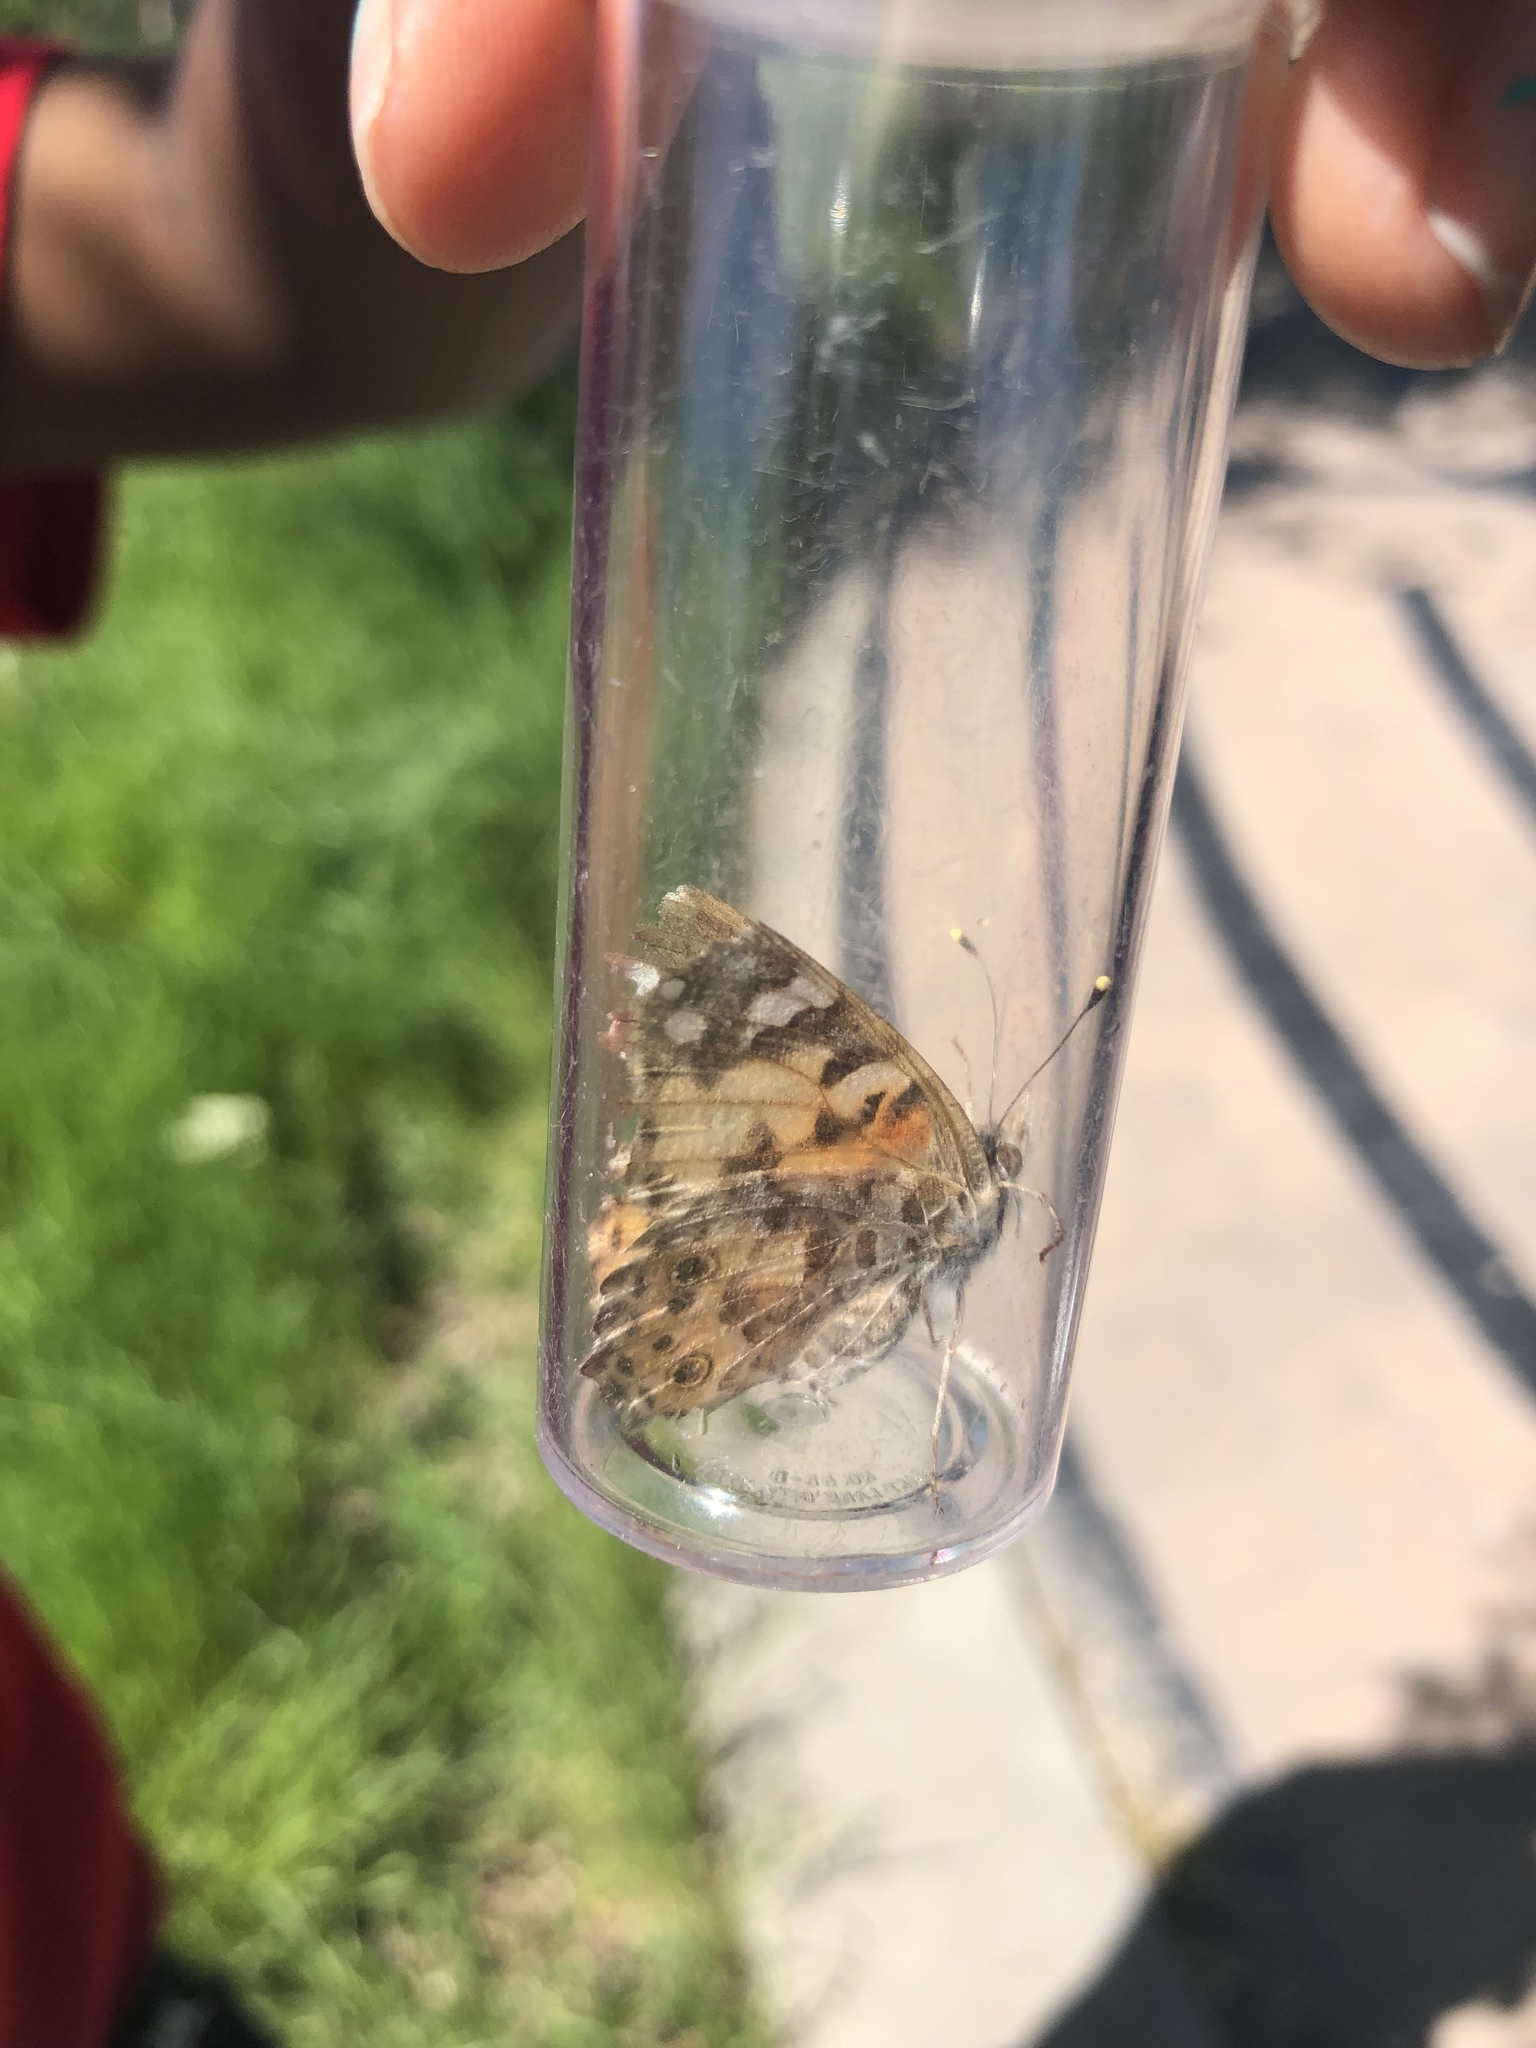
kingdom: Animalia
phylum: Arthropoda
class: Insecta
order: Lepidoptera
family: Nymphalidae
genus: Vanessa
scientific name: Vanessa cardui
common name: Painted lady
